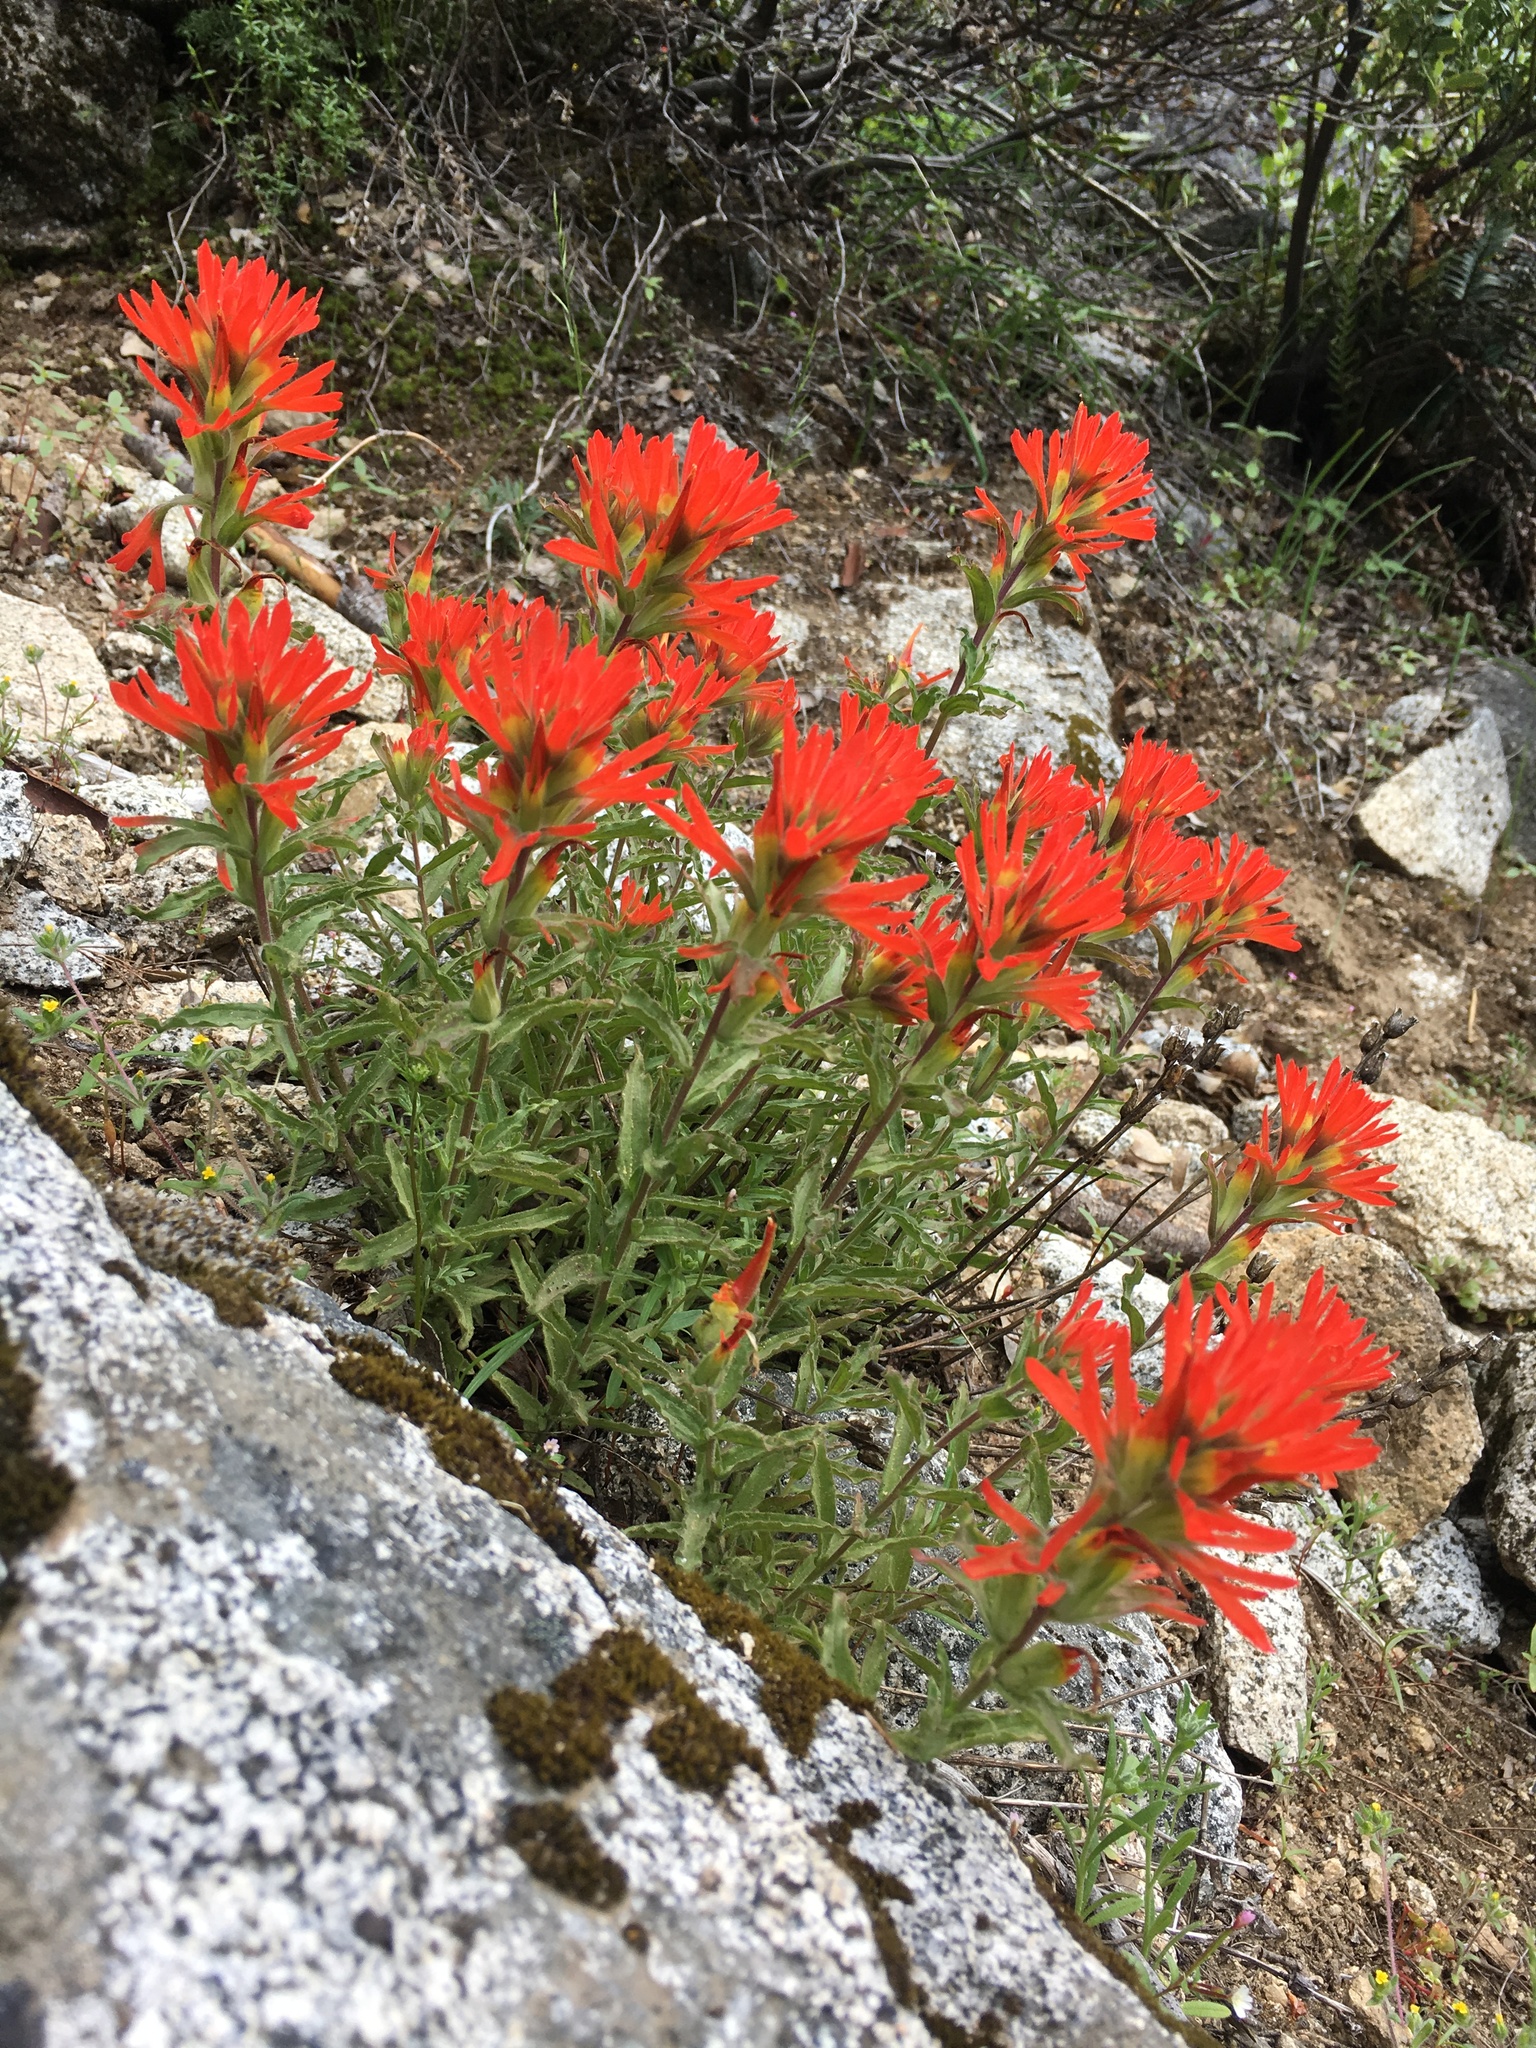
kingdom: Plantae
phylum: Tracheophyta
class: Magnoliopsida
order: Lamiales
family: Orobanchaceae
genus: Castilleja
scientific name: Castilleja applegatei
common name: Wavy-leaf paintbrush
